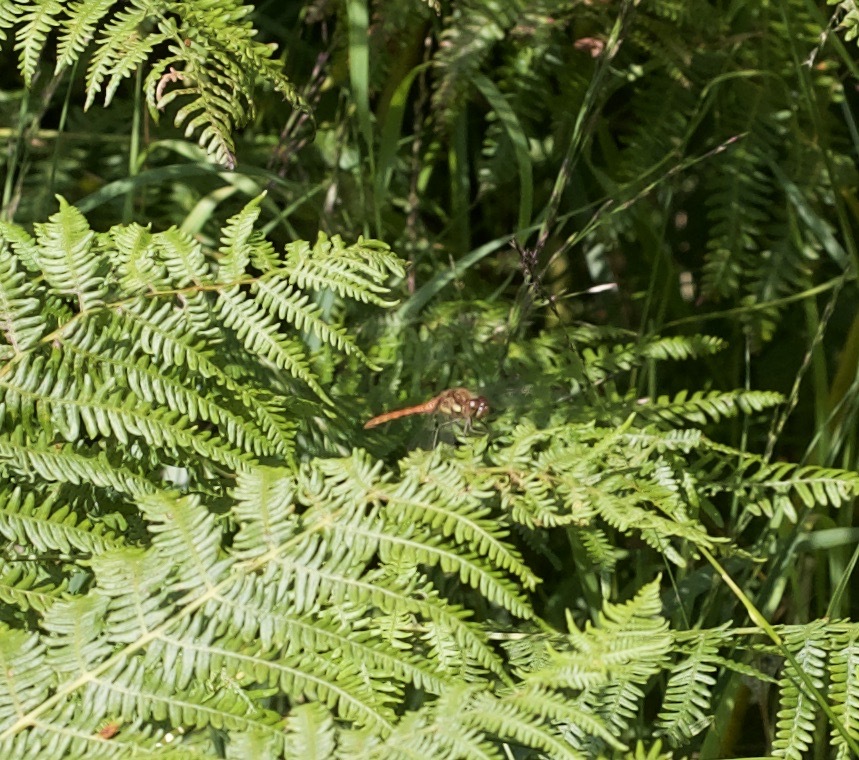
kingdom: Animalia
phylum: Arthropoda
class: Insecta
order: Odonata
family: Libellulidae
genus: Sympetrum
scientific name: Sympetrum striolatum
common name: Common darter
